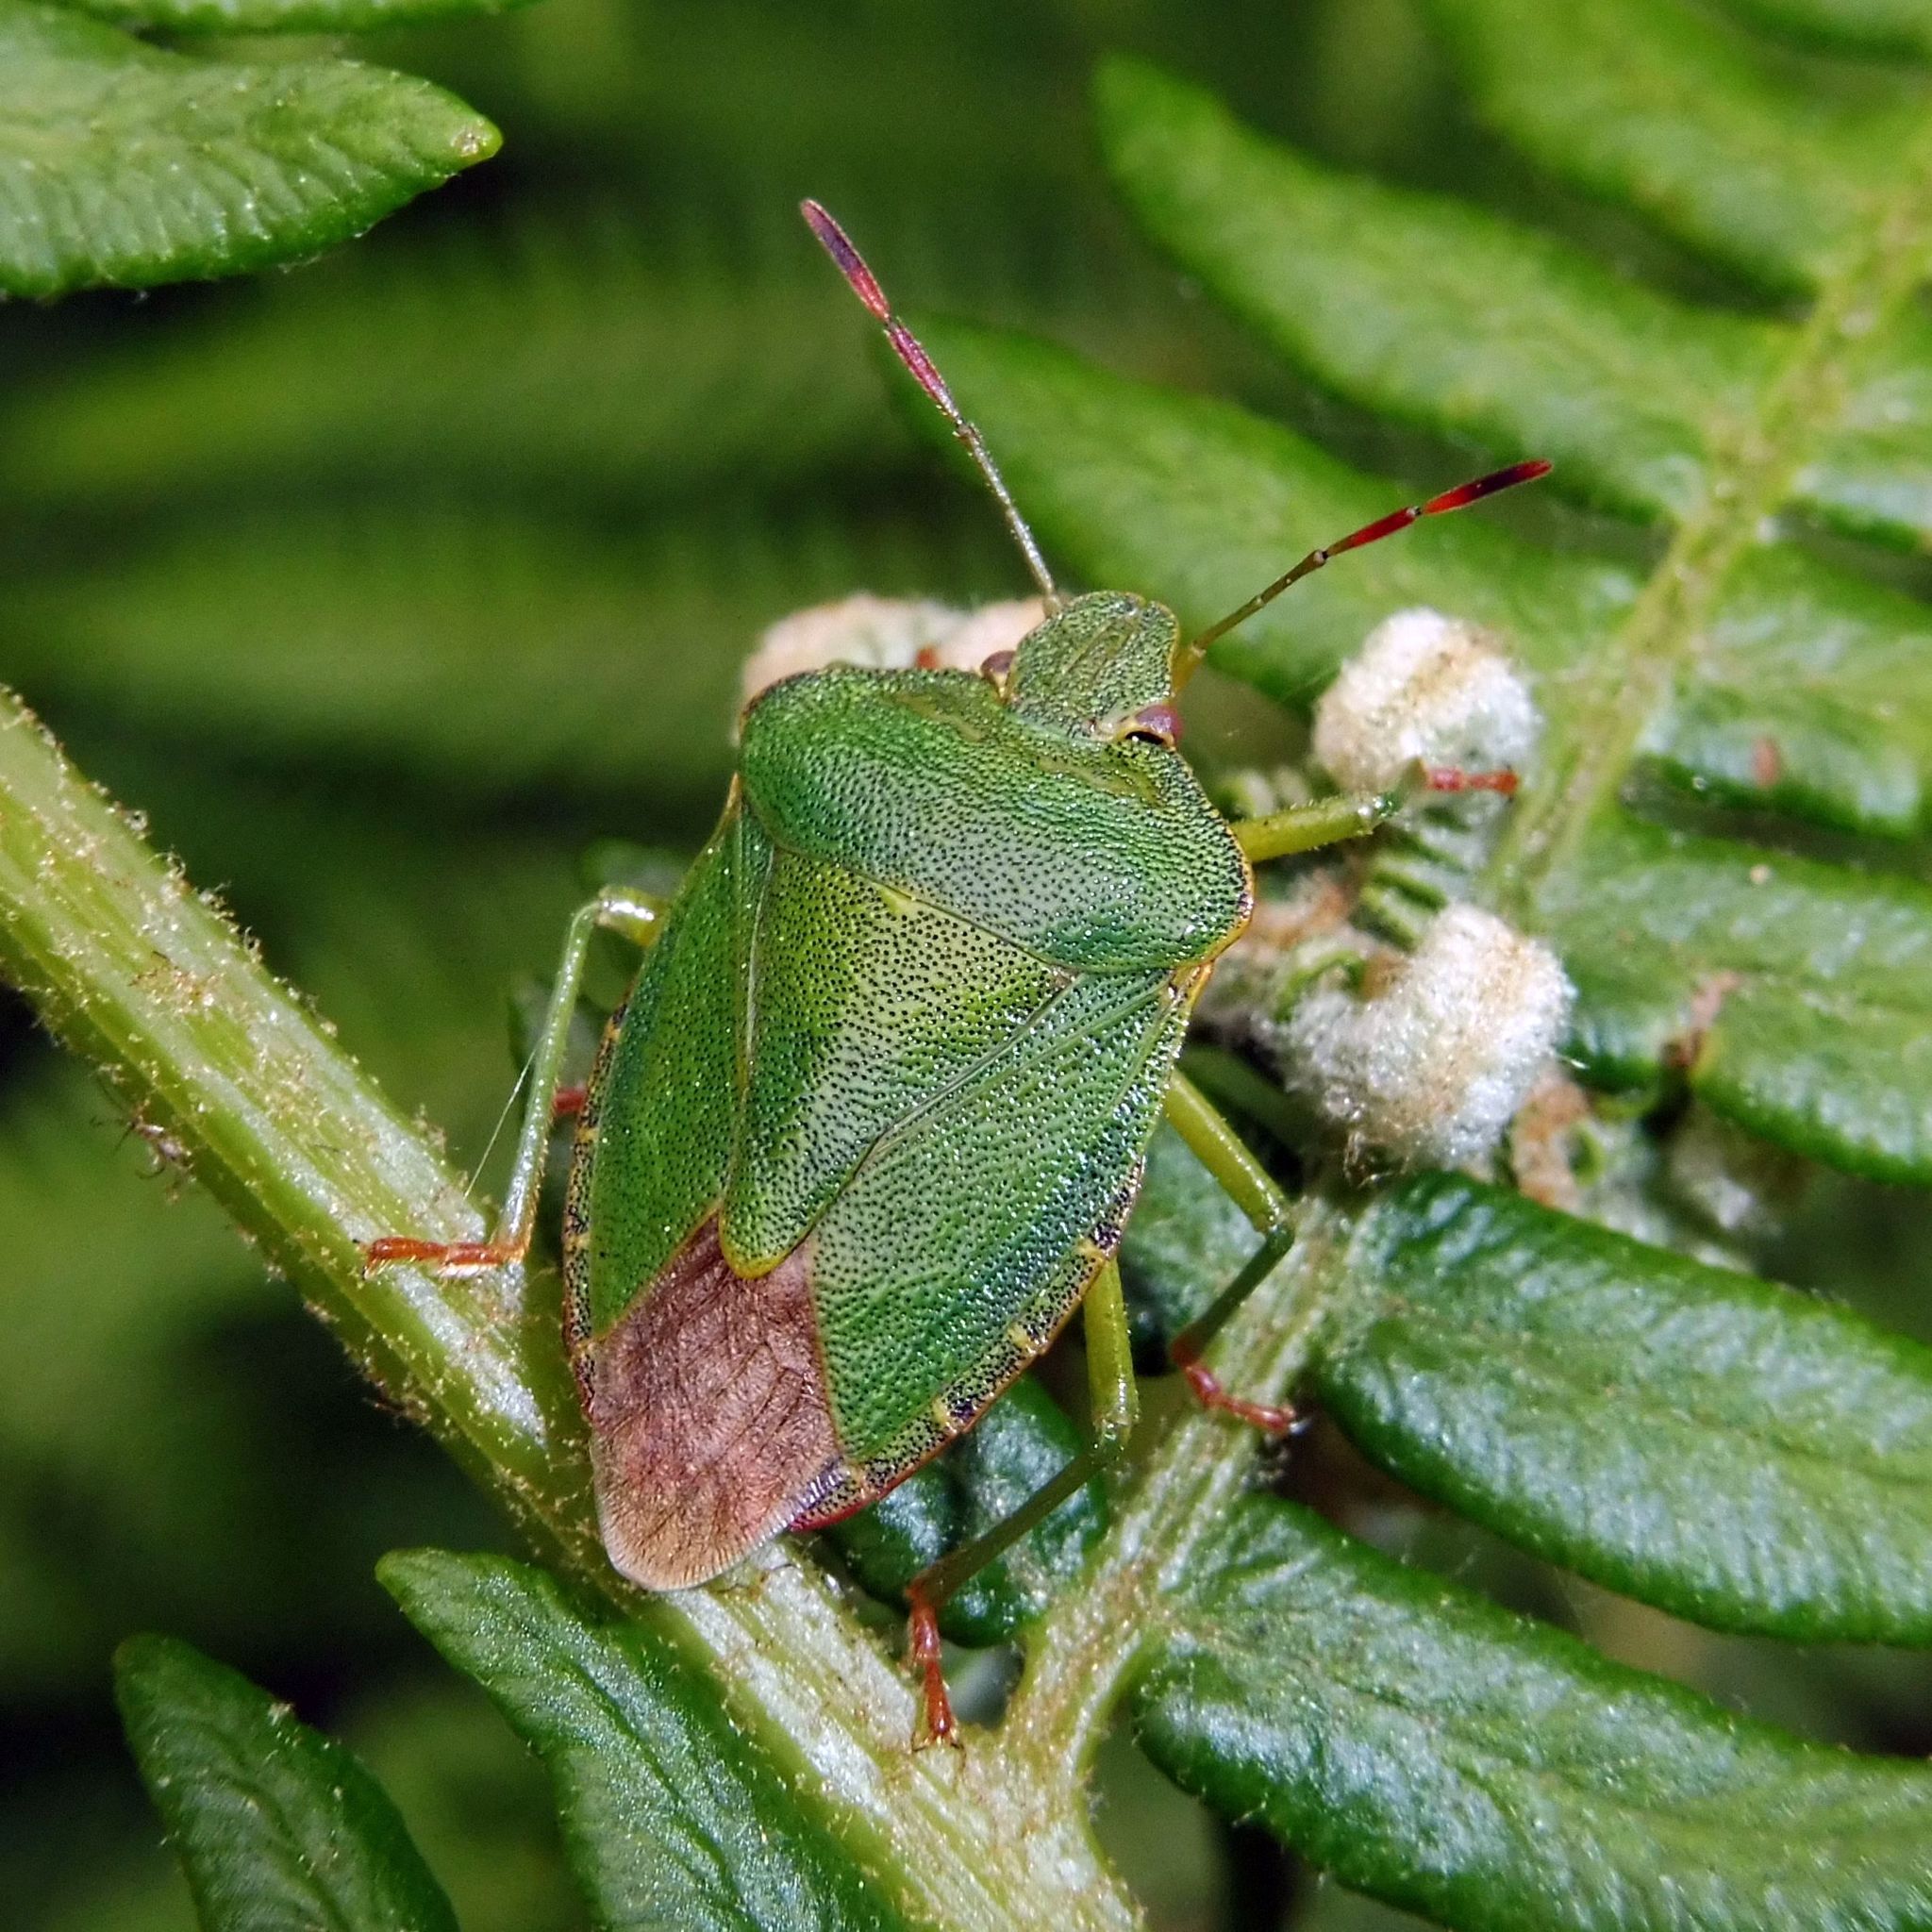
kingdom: Animalia
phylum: Arthropoda
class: Insecta
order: Hemiptera
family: Pentatomidae
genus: Palomena
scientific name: Palomena prasina
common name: Green shieldbug
